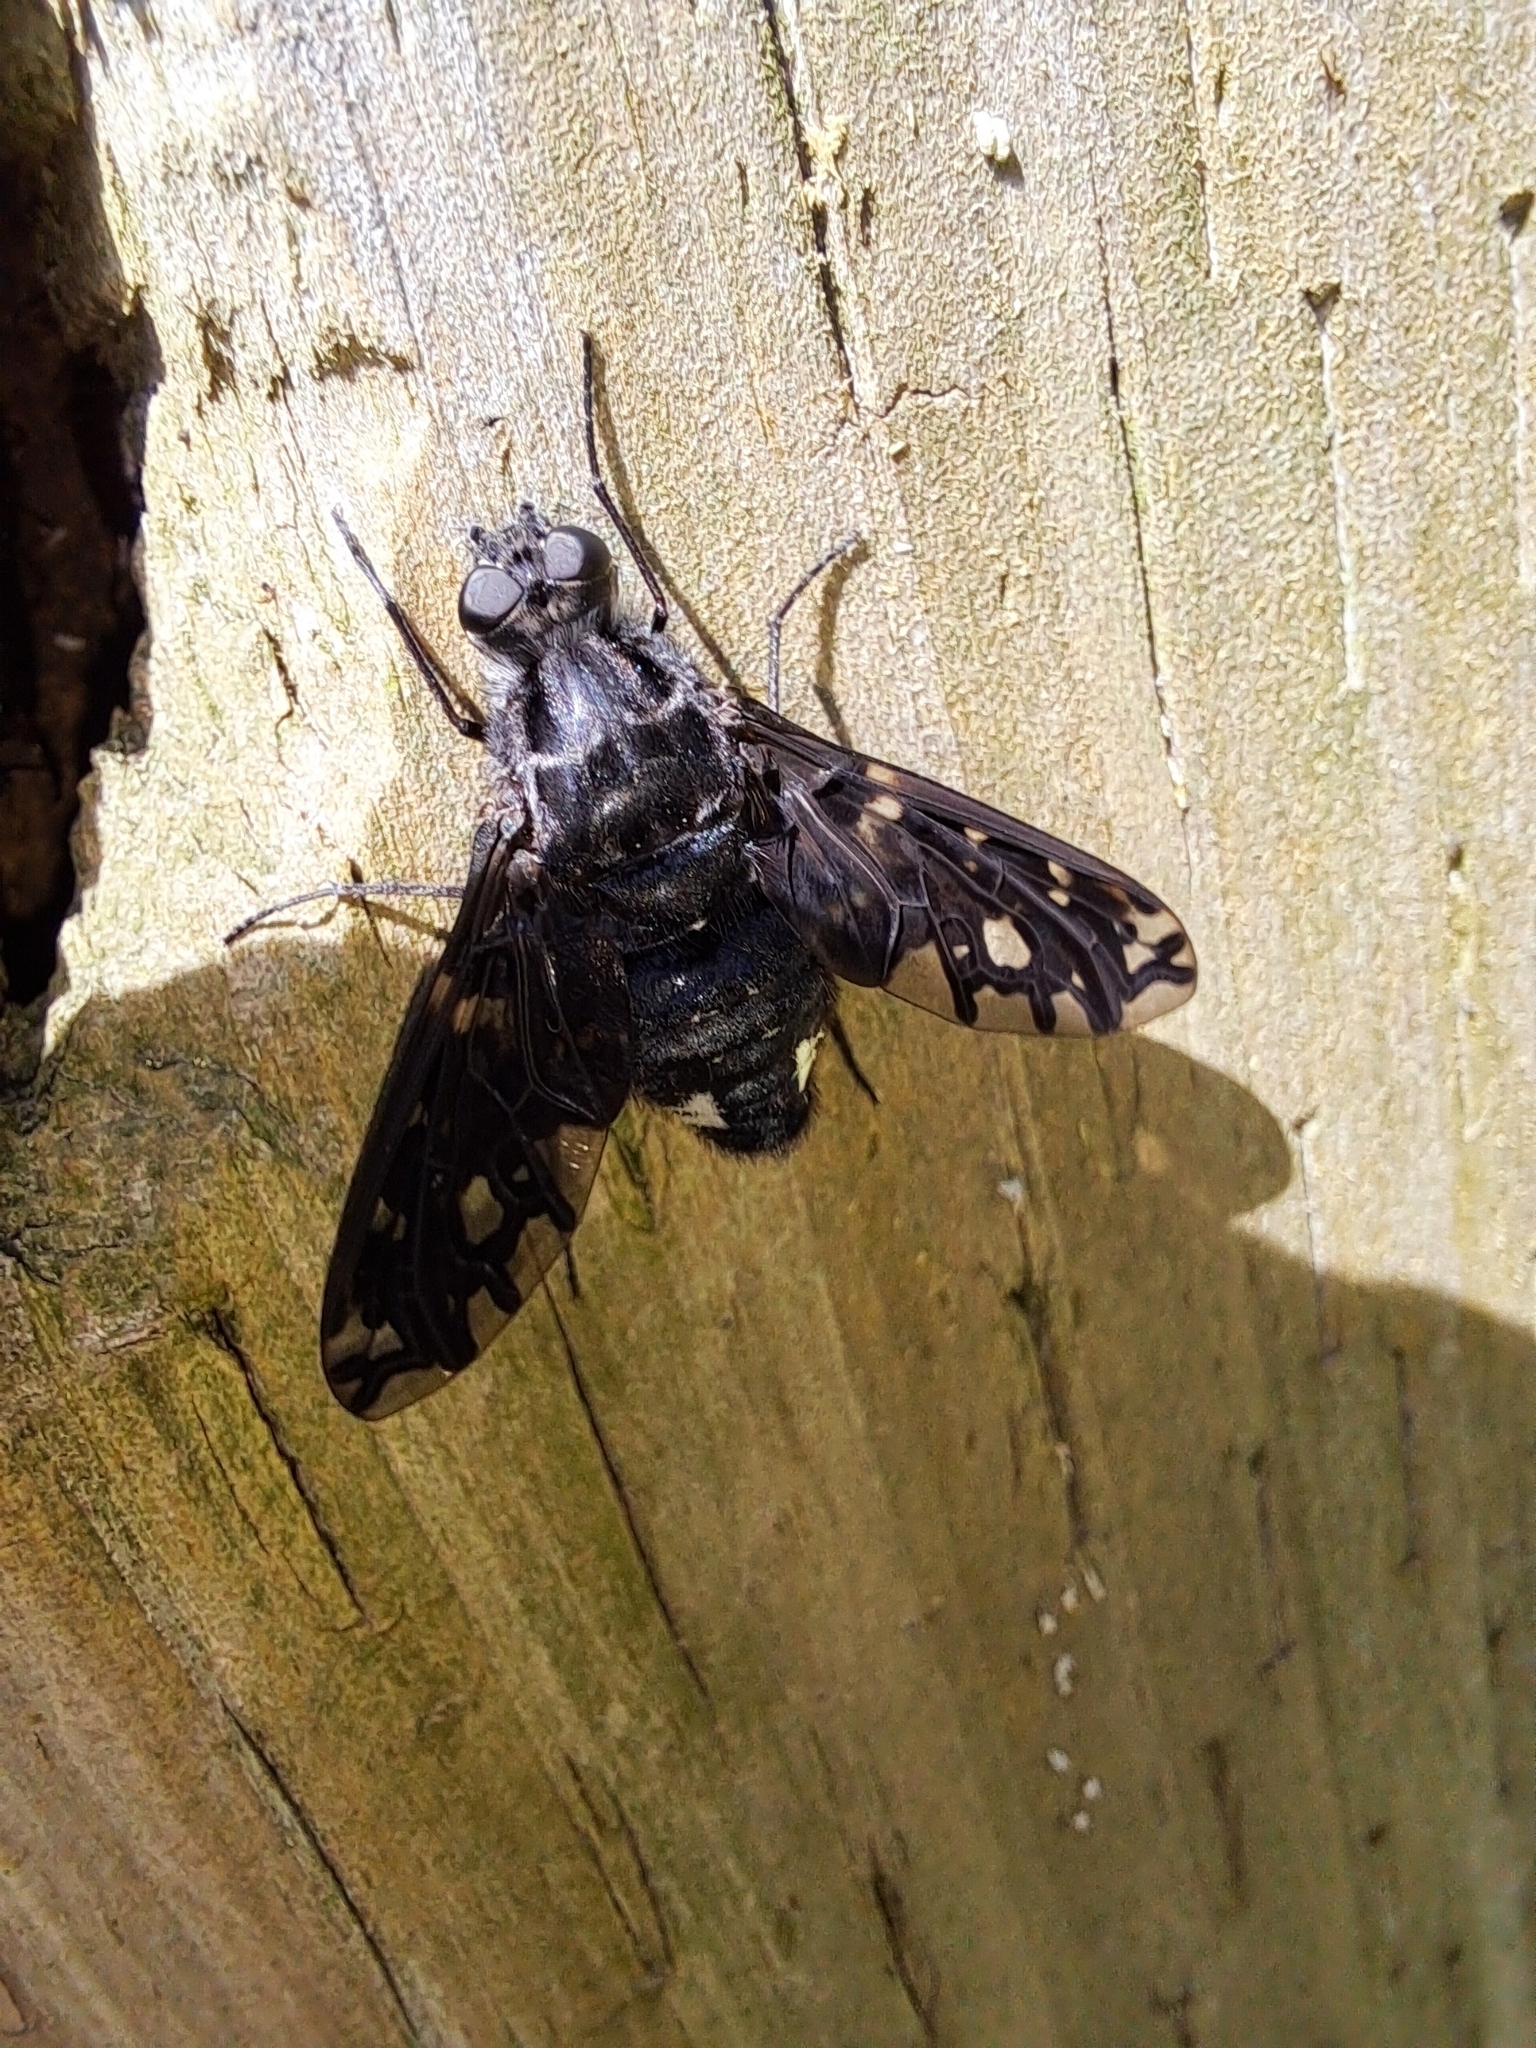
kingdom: Animalia
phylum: Arthropoda
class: Insecta
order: Diptera
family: Bombyliidae
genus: Xenox
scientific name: Xenox tigrinus
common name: Tiger bee fly
